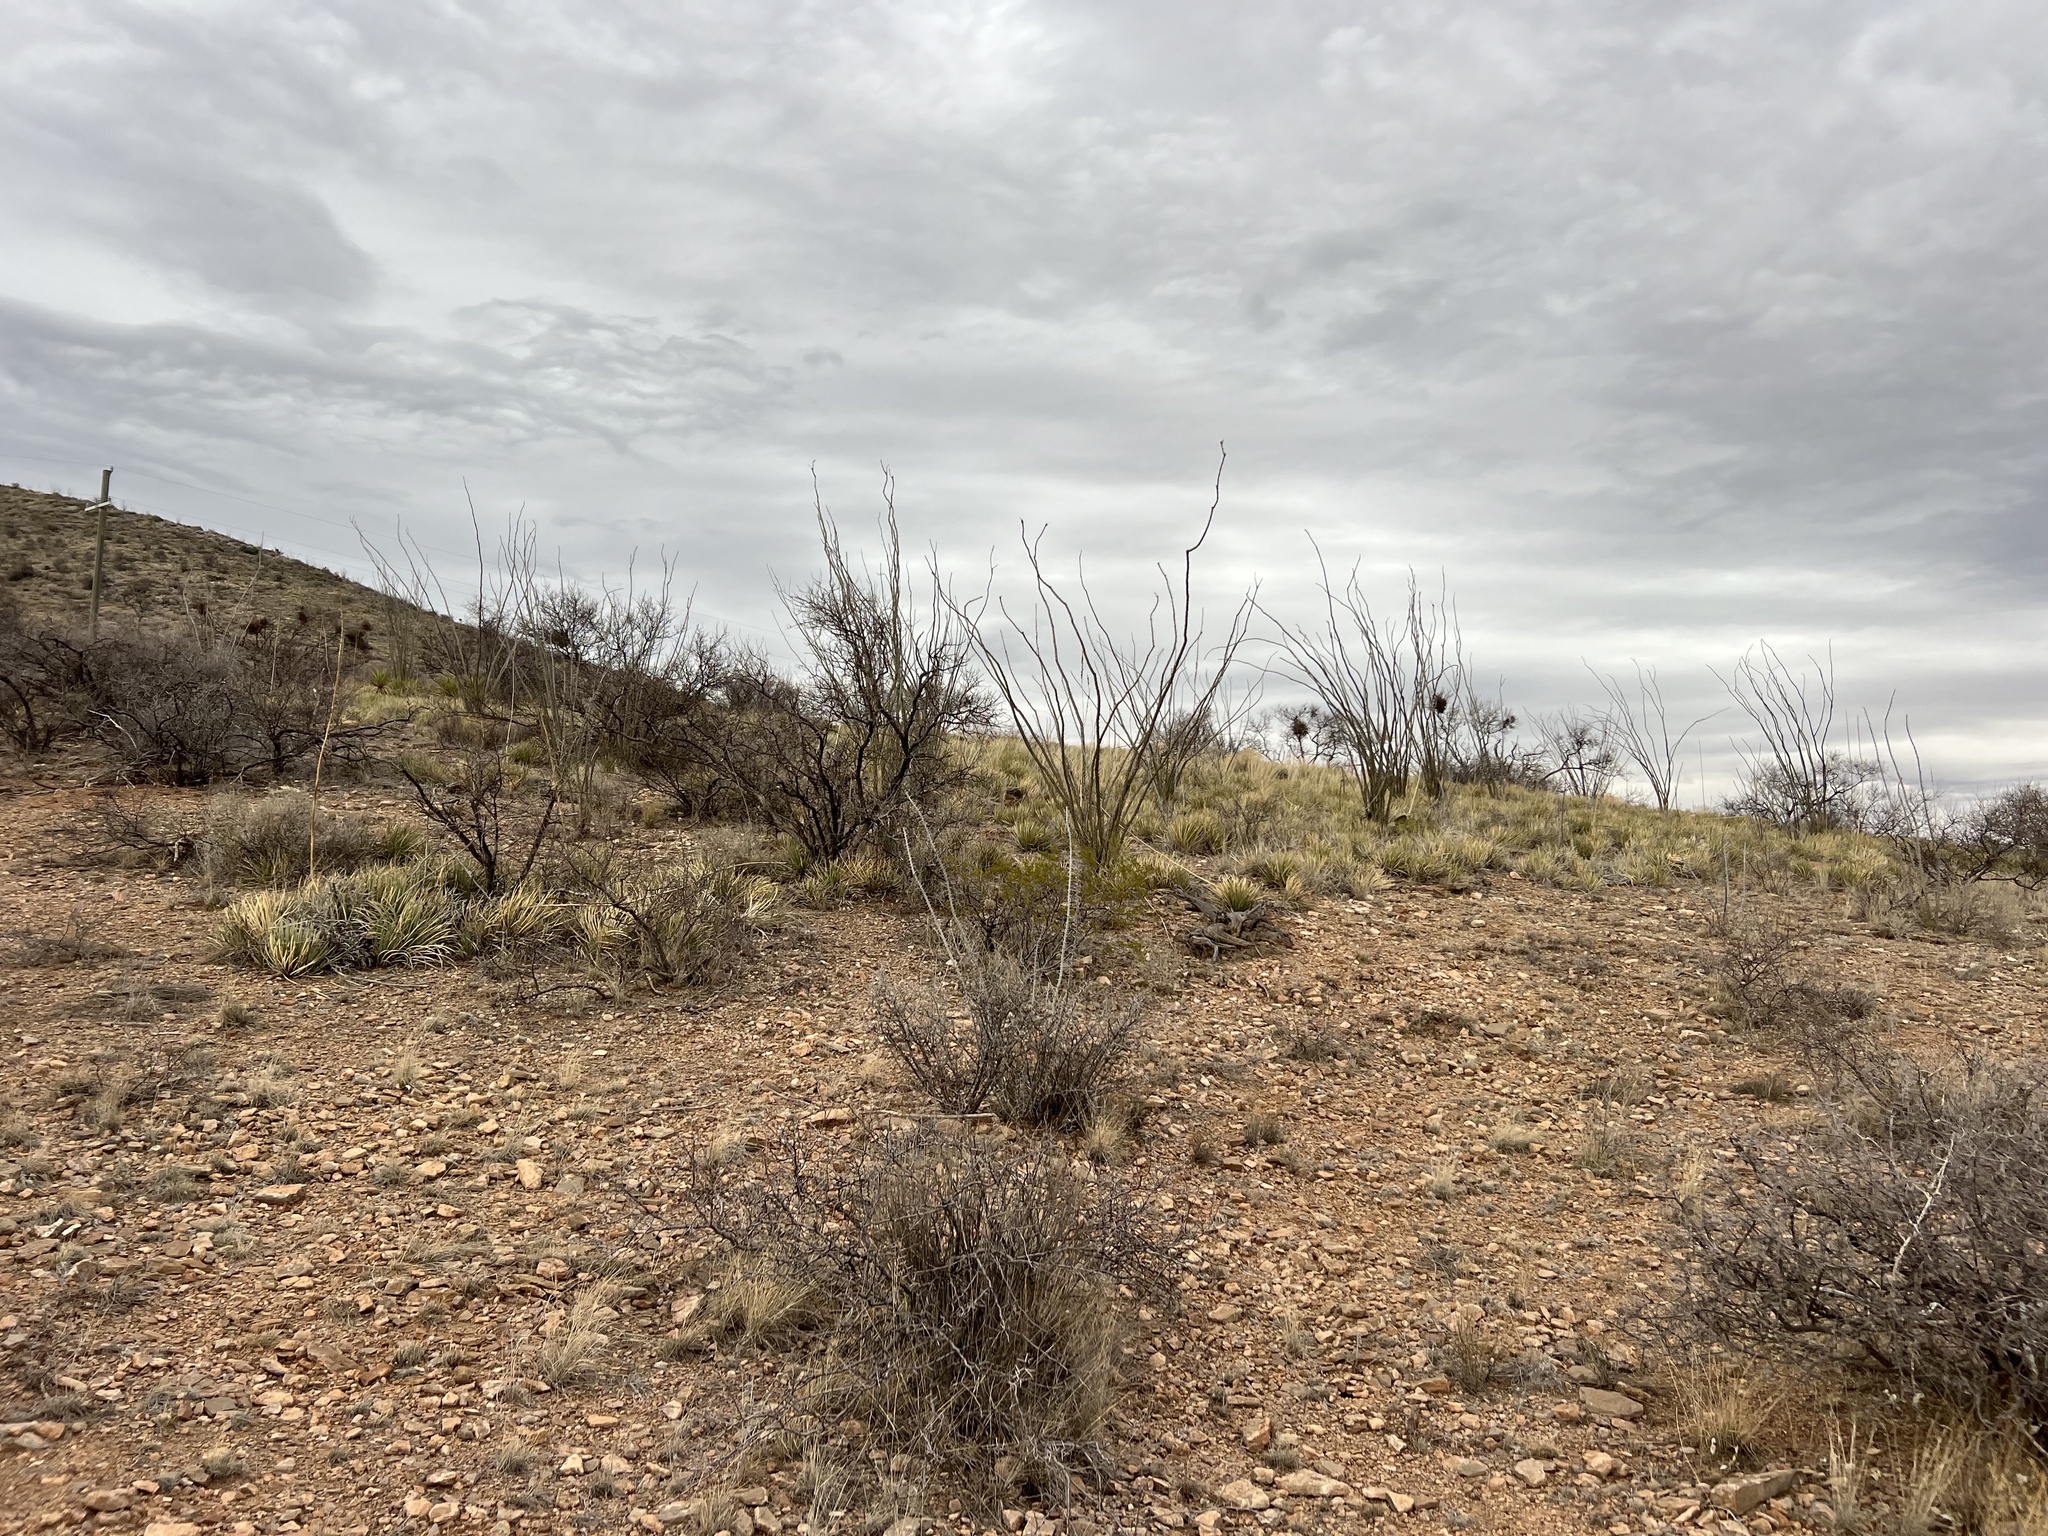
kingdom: Plantae
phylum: Tracheophyta
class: Magnoliopsida
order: Ericales
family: Fouquieriaceae
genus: Fouquieria
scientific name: Fouquieria splendens
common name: Vine-cactus
